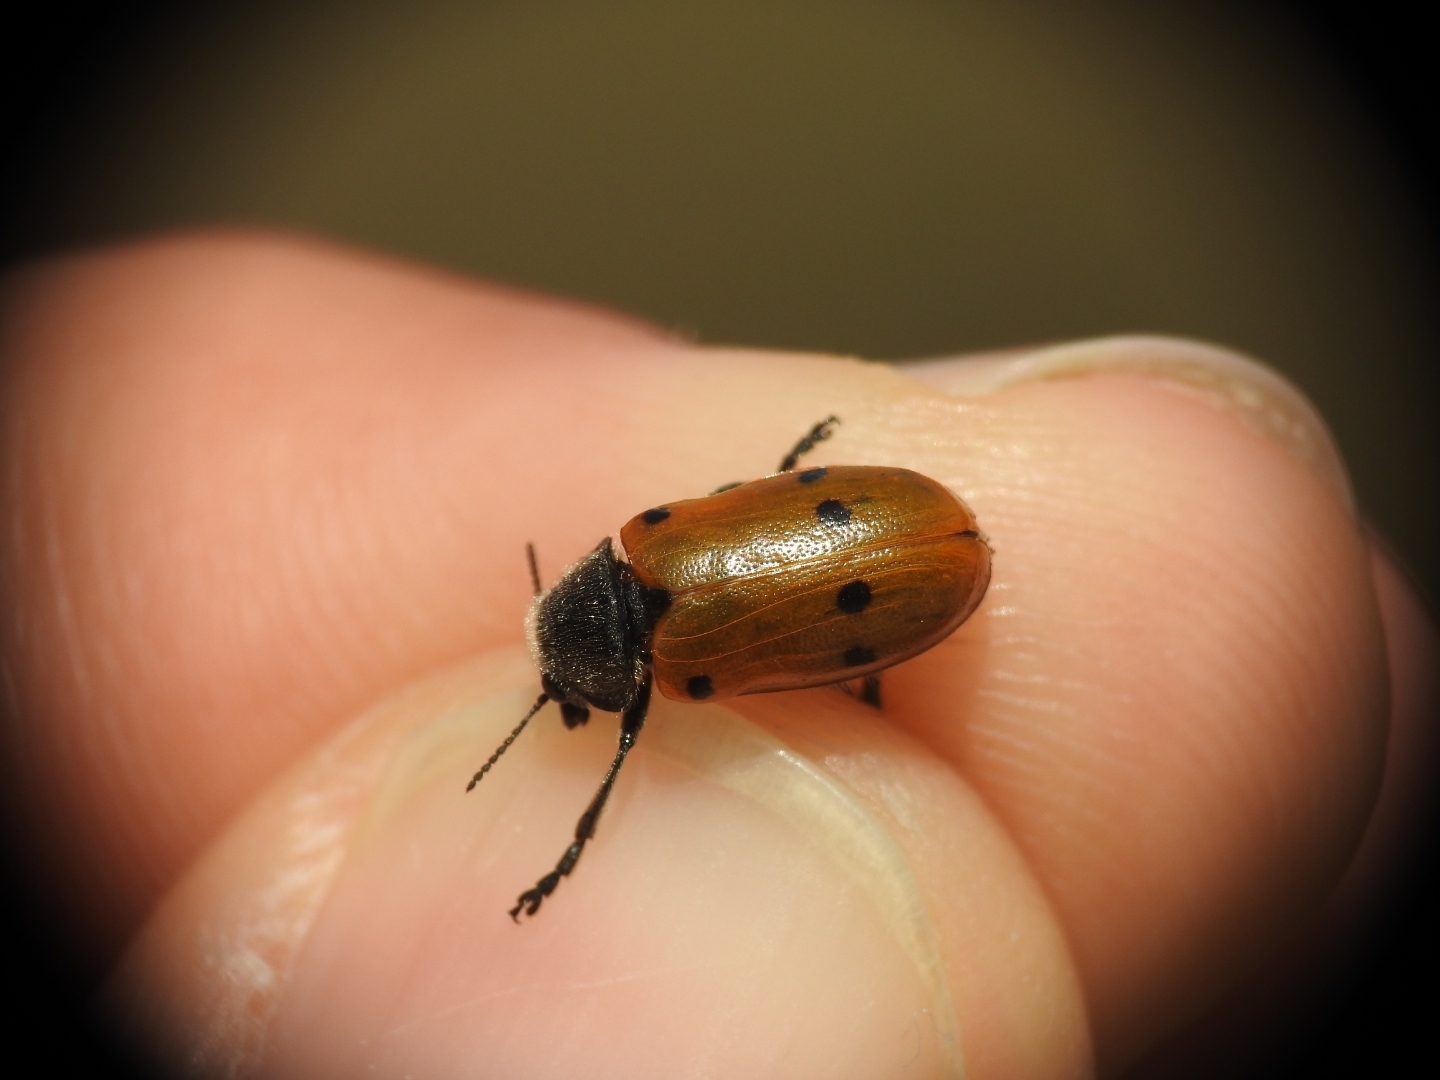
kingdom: Animalia
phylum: Arthropoda
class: Insecta
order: Coleoptera
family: Chrysomelidae
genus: Lachnaia
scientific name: Lachnaia zoiai
